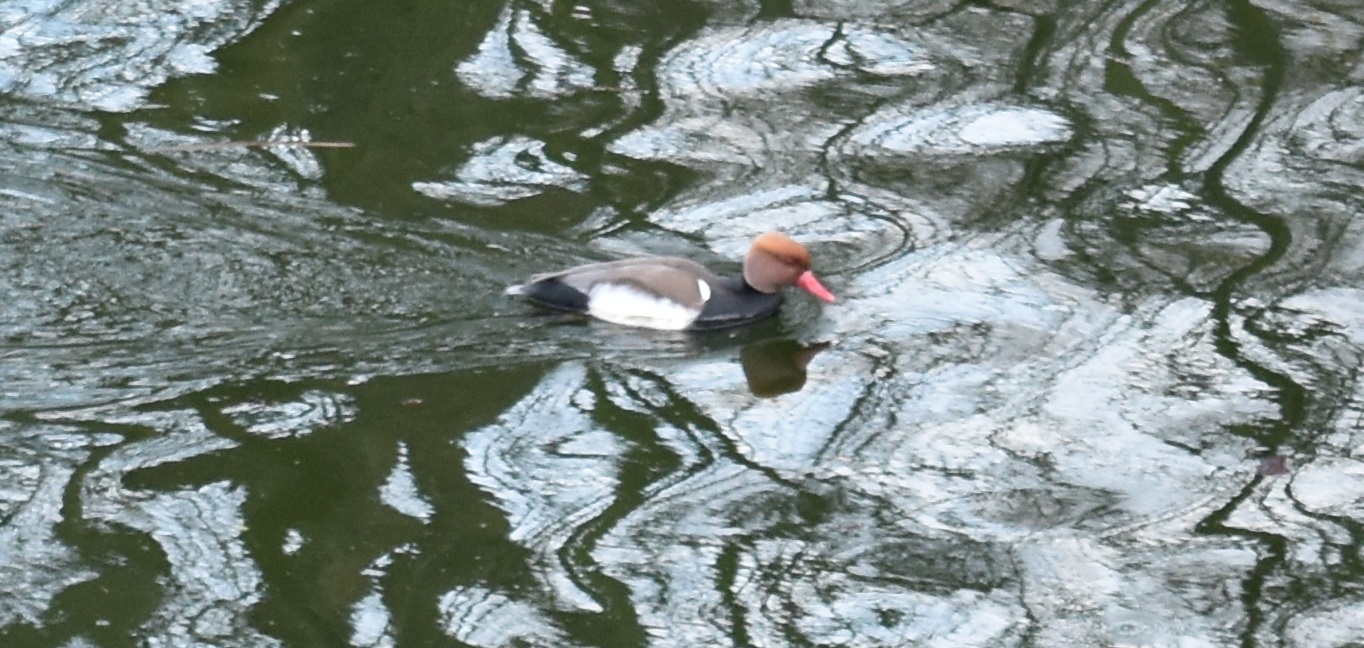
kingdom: Animalia
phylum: Chordata
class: Aves
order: Anseriformes
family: Anatidae
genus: Netta
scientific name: Netta rufina
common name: Red-crested pochard
